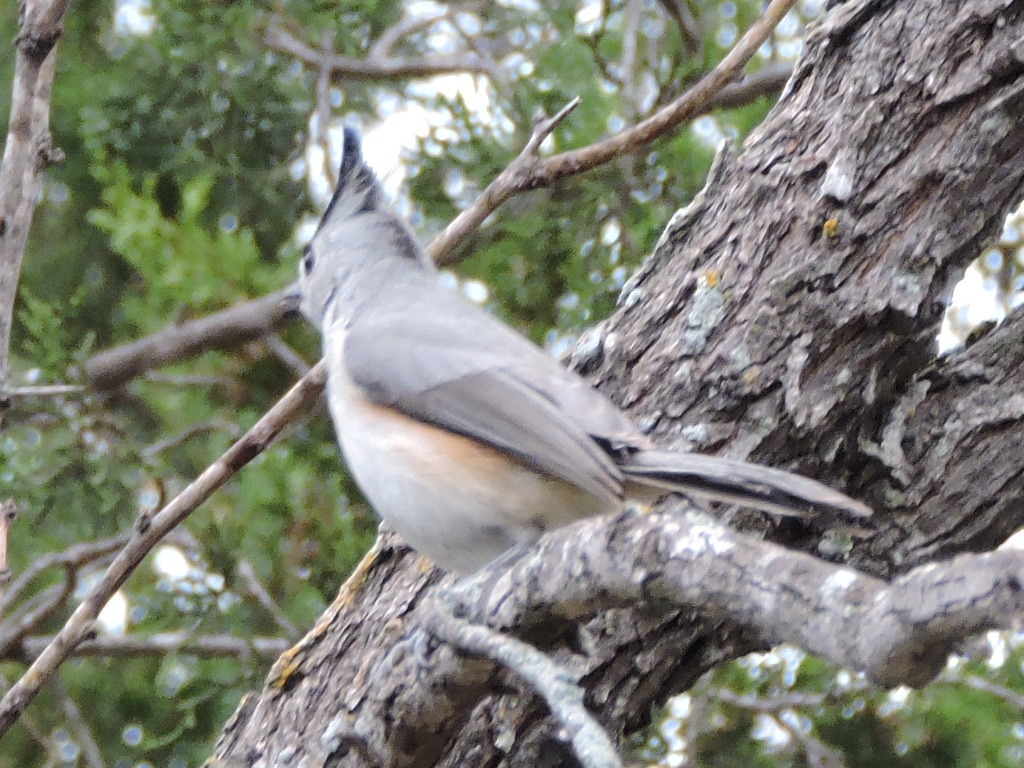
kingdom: Animalia
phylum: Chordata
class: Aves
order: Passeriformes
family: Paridae
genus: Baeolophus
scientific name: Baeolophus atricristatus
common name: Black-crested titmouse
